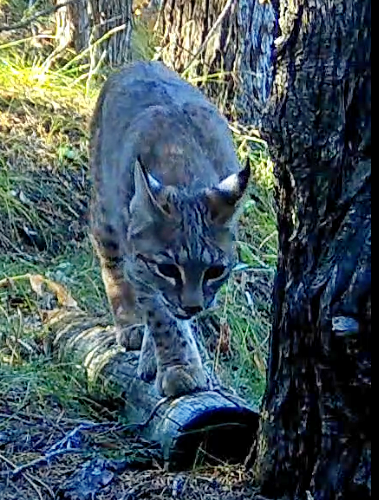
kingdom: Animalia
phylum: Chordata
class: Mammalia
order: Carnivora
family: Felidae
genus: Lynx
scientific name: Lynx rufus
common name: Bobcat
